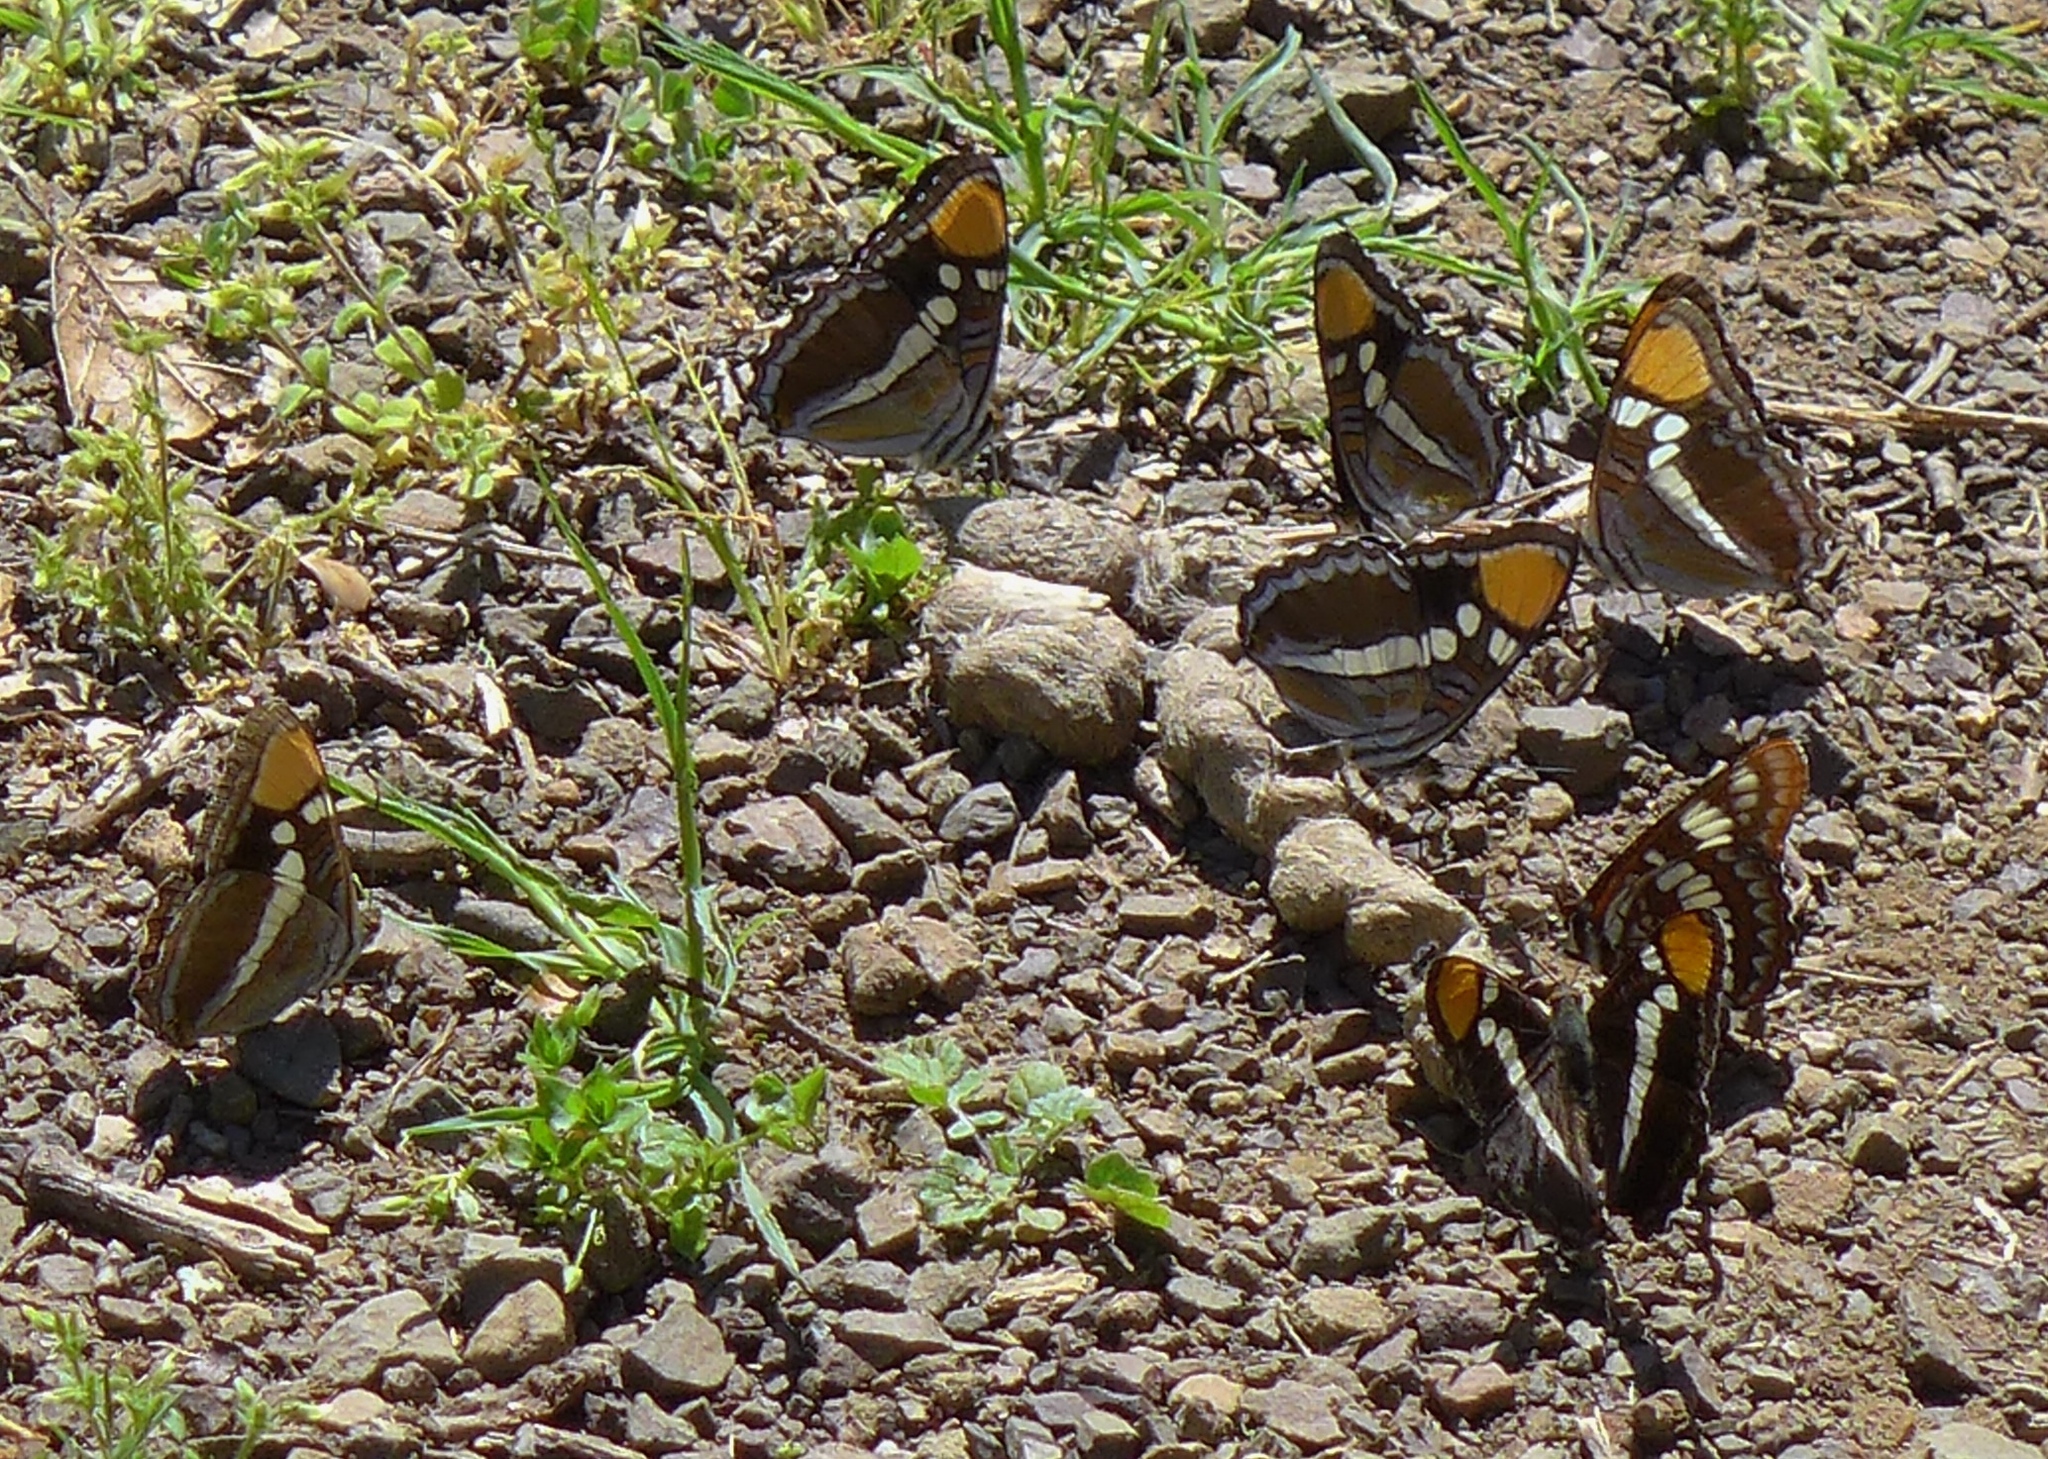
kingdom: Animalia
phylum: Arthropoda
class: Insecta
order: Lepidoptera
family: Nymphalidae
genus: Limenitis
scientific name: Limenitis lorquini
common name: Lorquin's admiral
